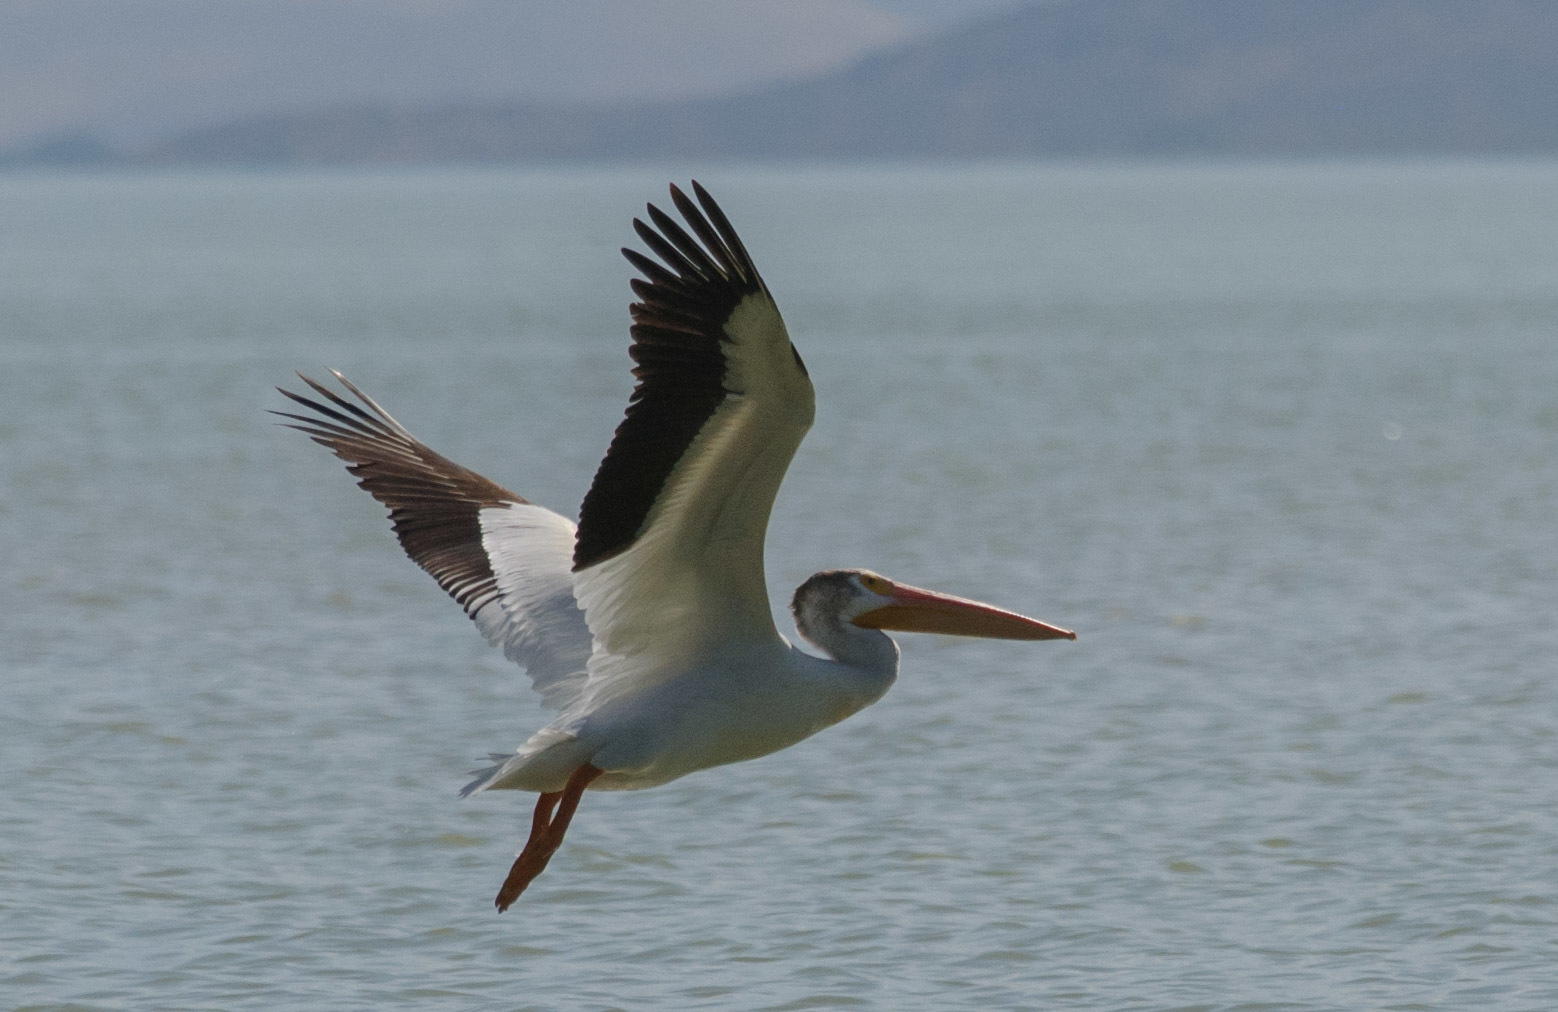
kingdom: Animalia
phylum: Chordata
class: Aves
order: Pelecaniformes
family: Pelecanidae
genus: Pelecanus
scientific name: Pelecanus erythrorhynchos
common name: American white pelican
